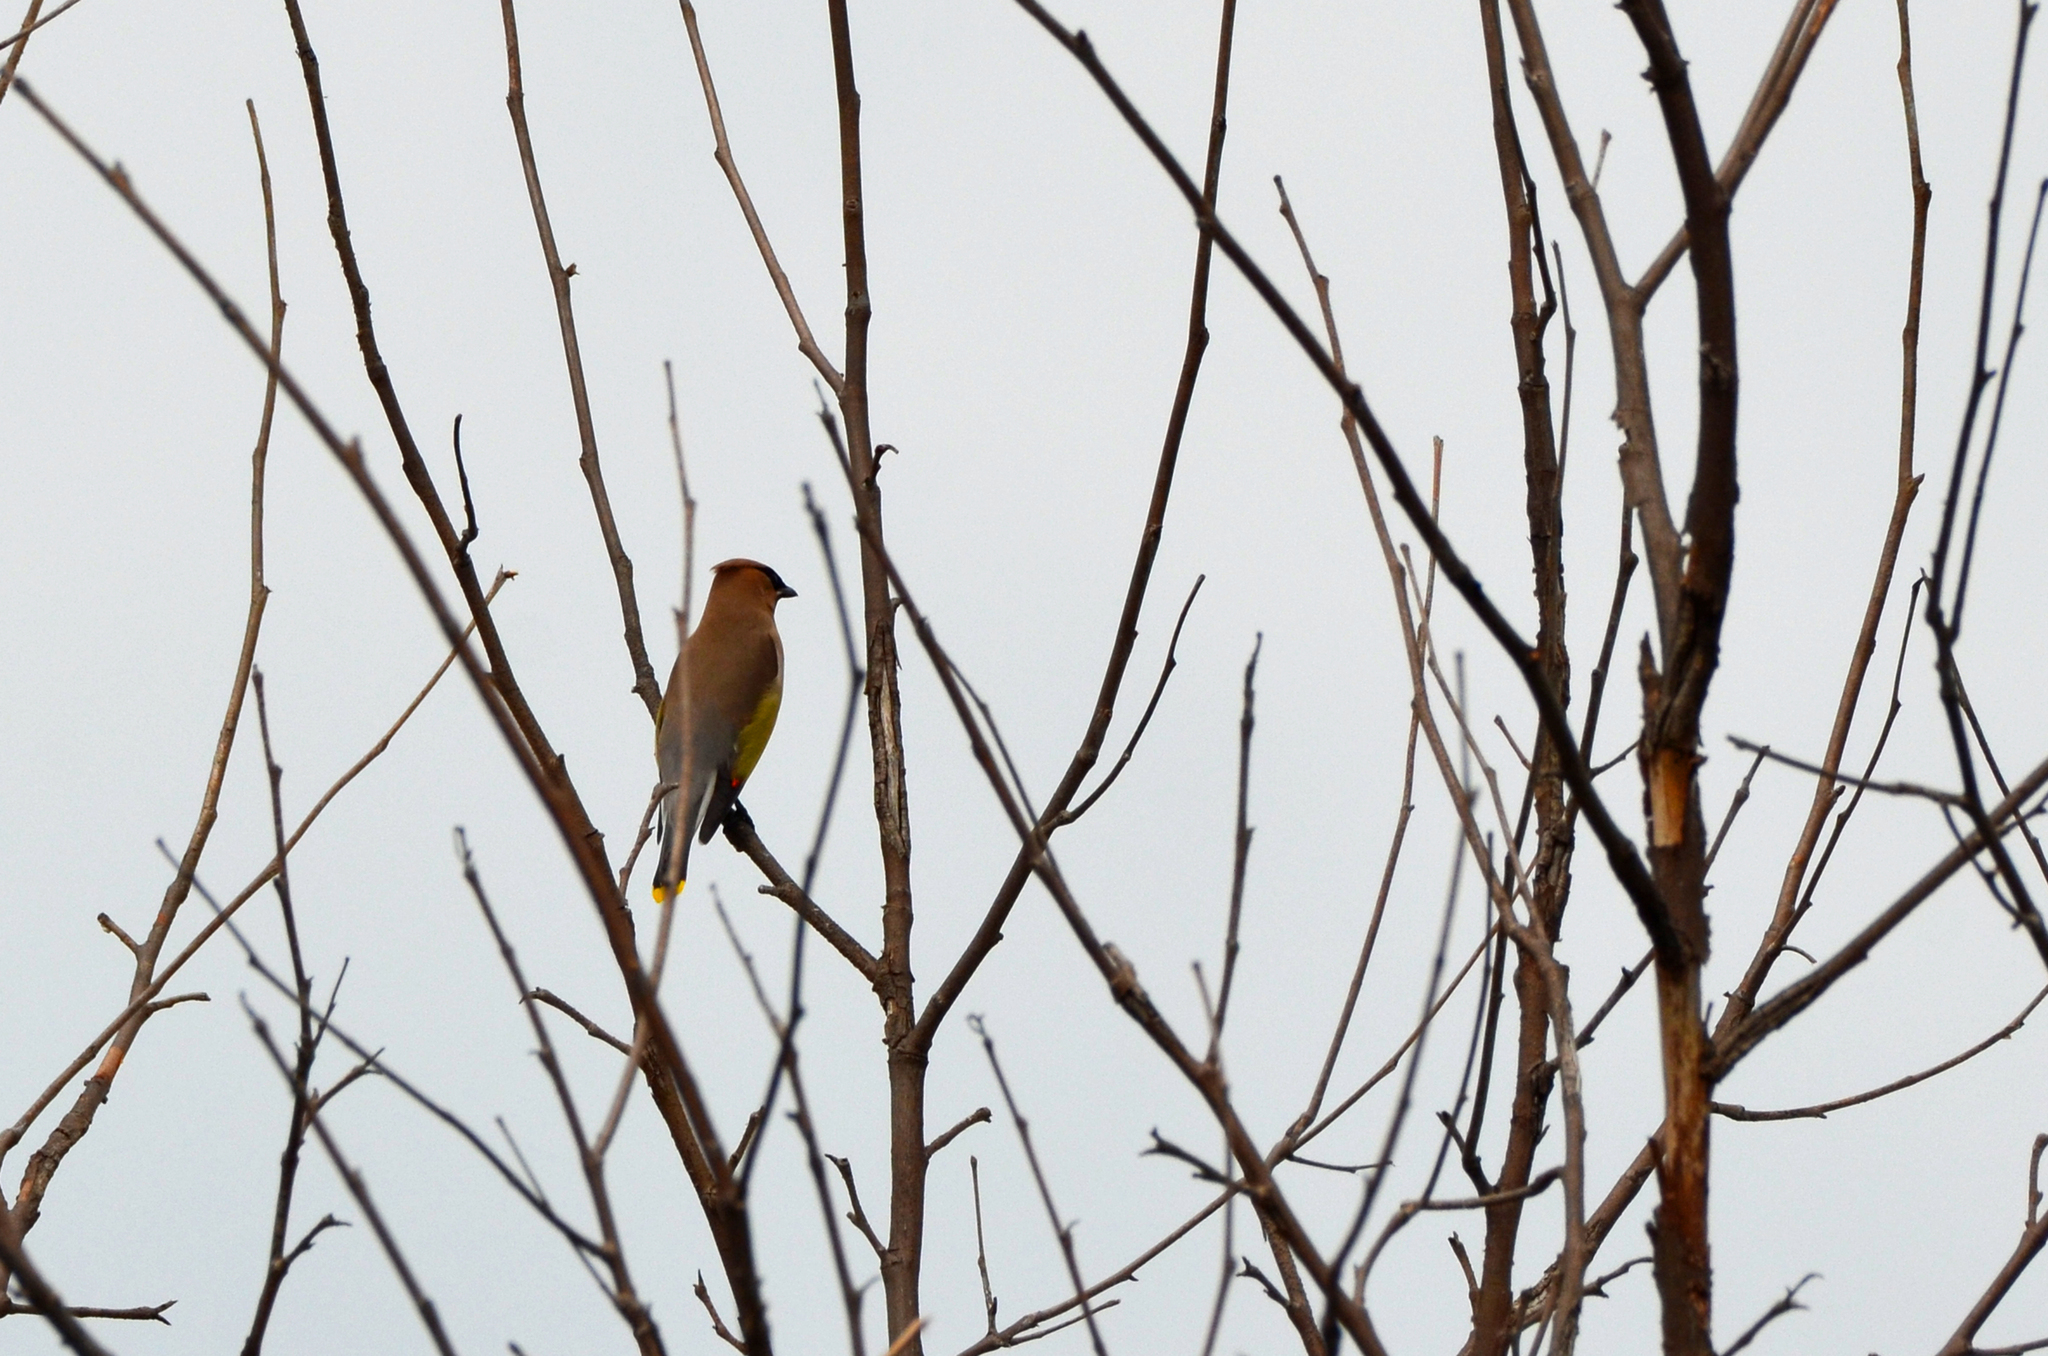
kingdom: Animalia
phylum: Chordata
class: Aves
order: Passeriformes
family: Bombycillidae
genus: Bombycilla
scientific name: Bombycilla cedrorum
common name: Cedar waxwing
